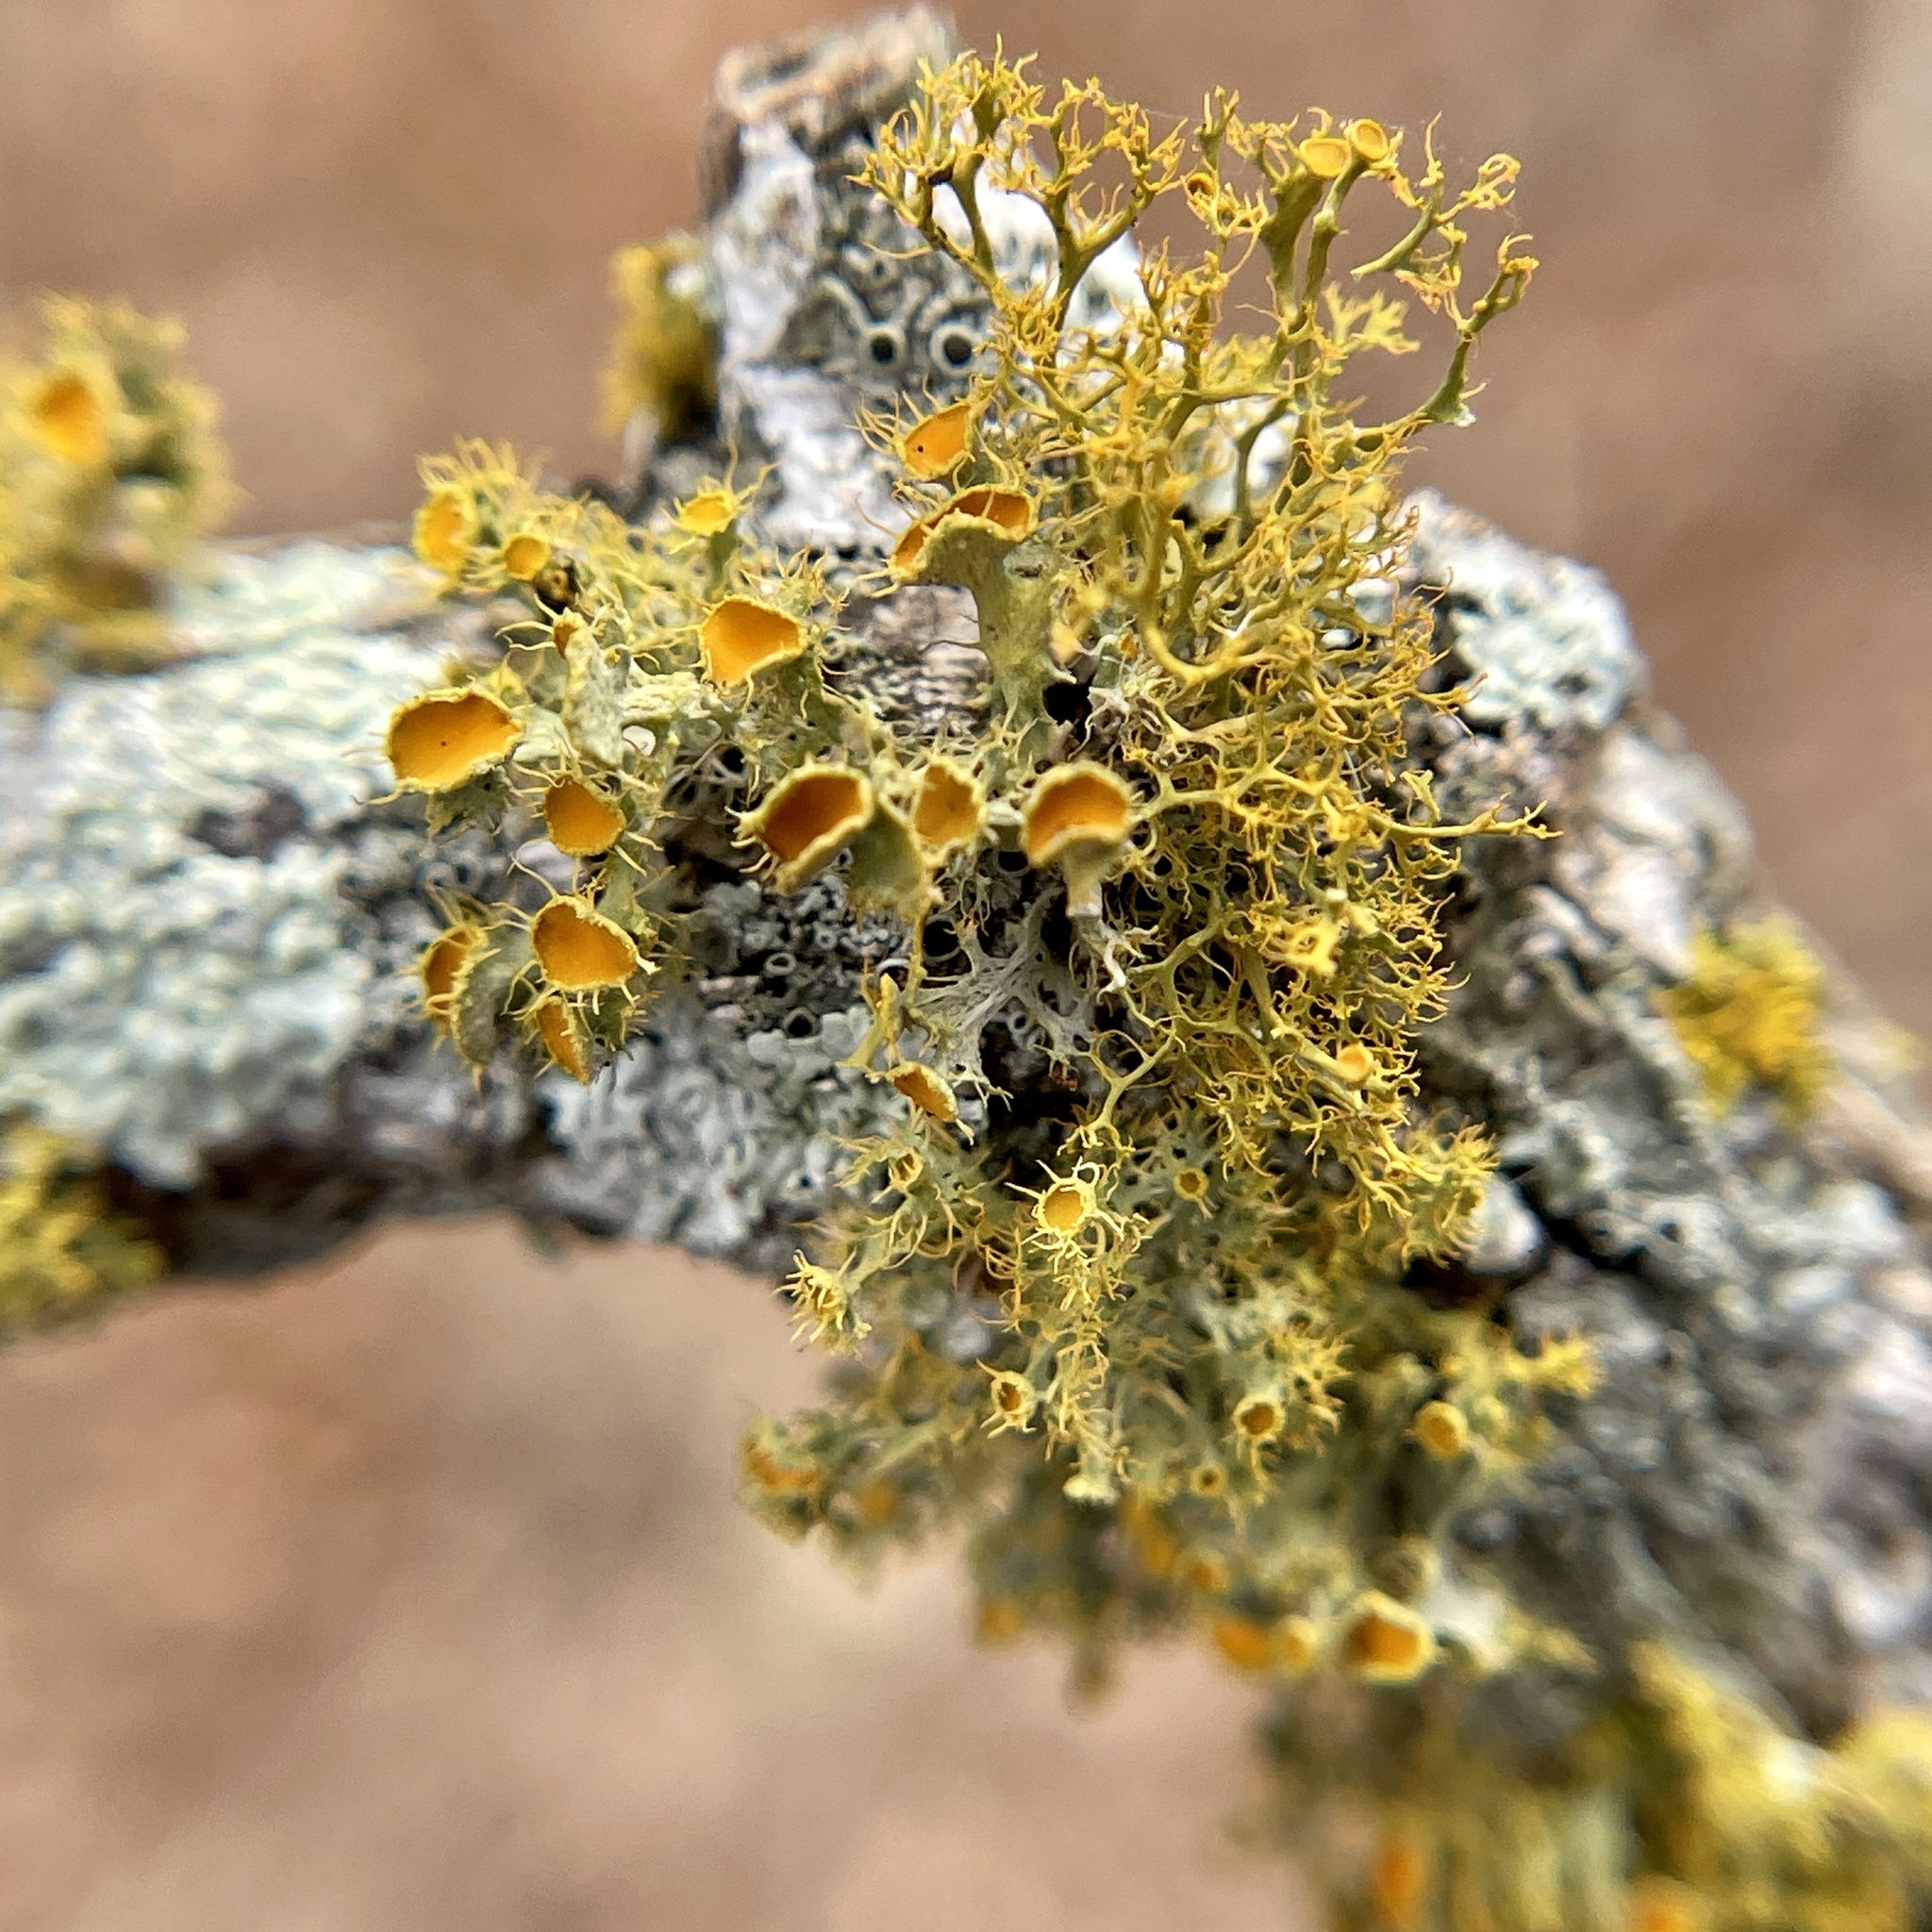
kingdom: Fungi
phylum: Ascomycota
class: Lecanoromycetes
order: Teloschistales
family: Teloschistaceae
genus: Niorma
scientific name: Niorma chrysophthalma
